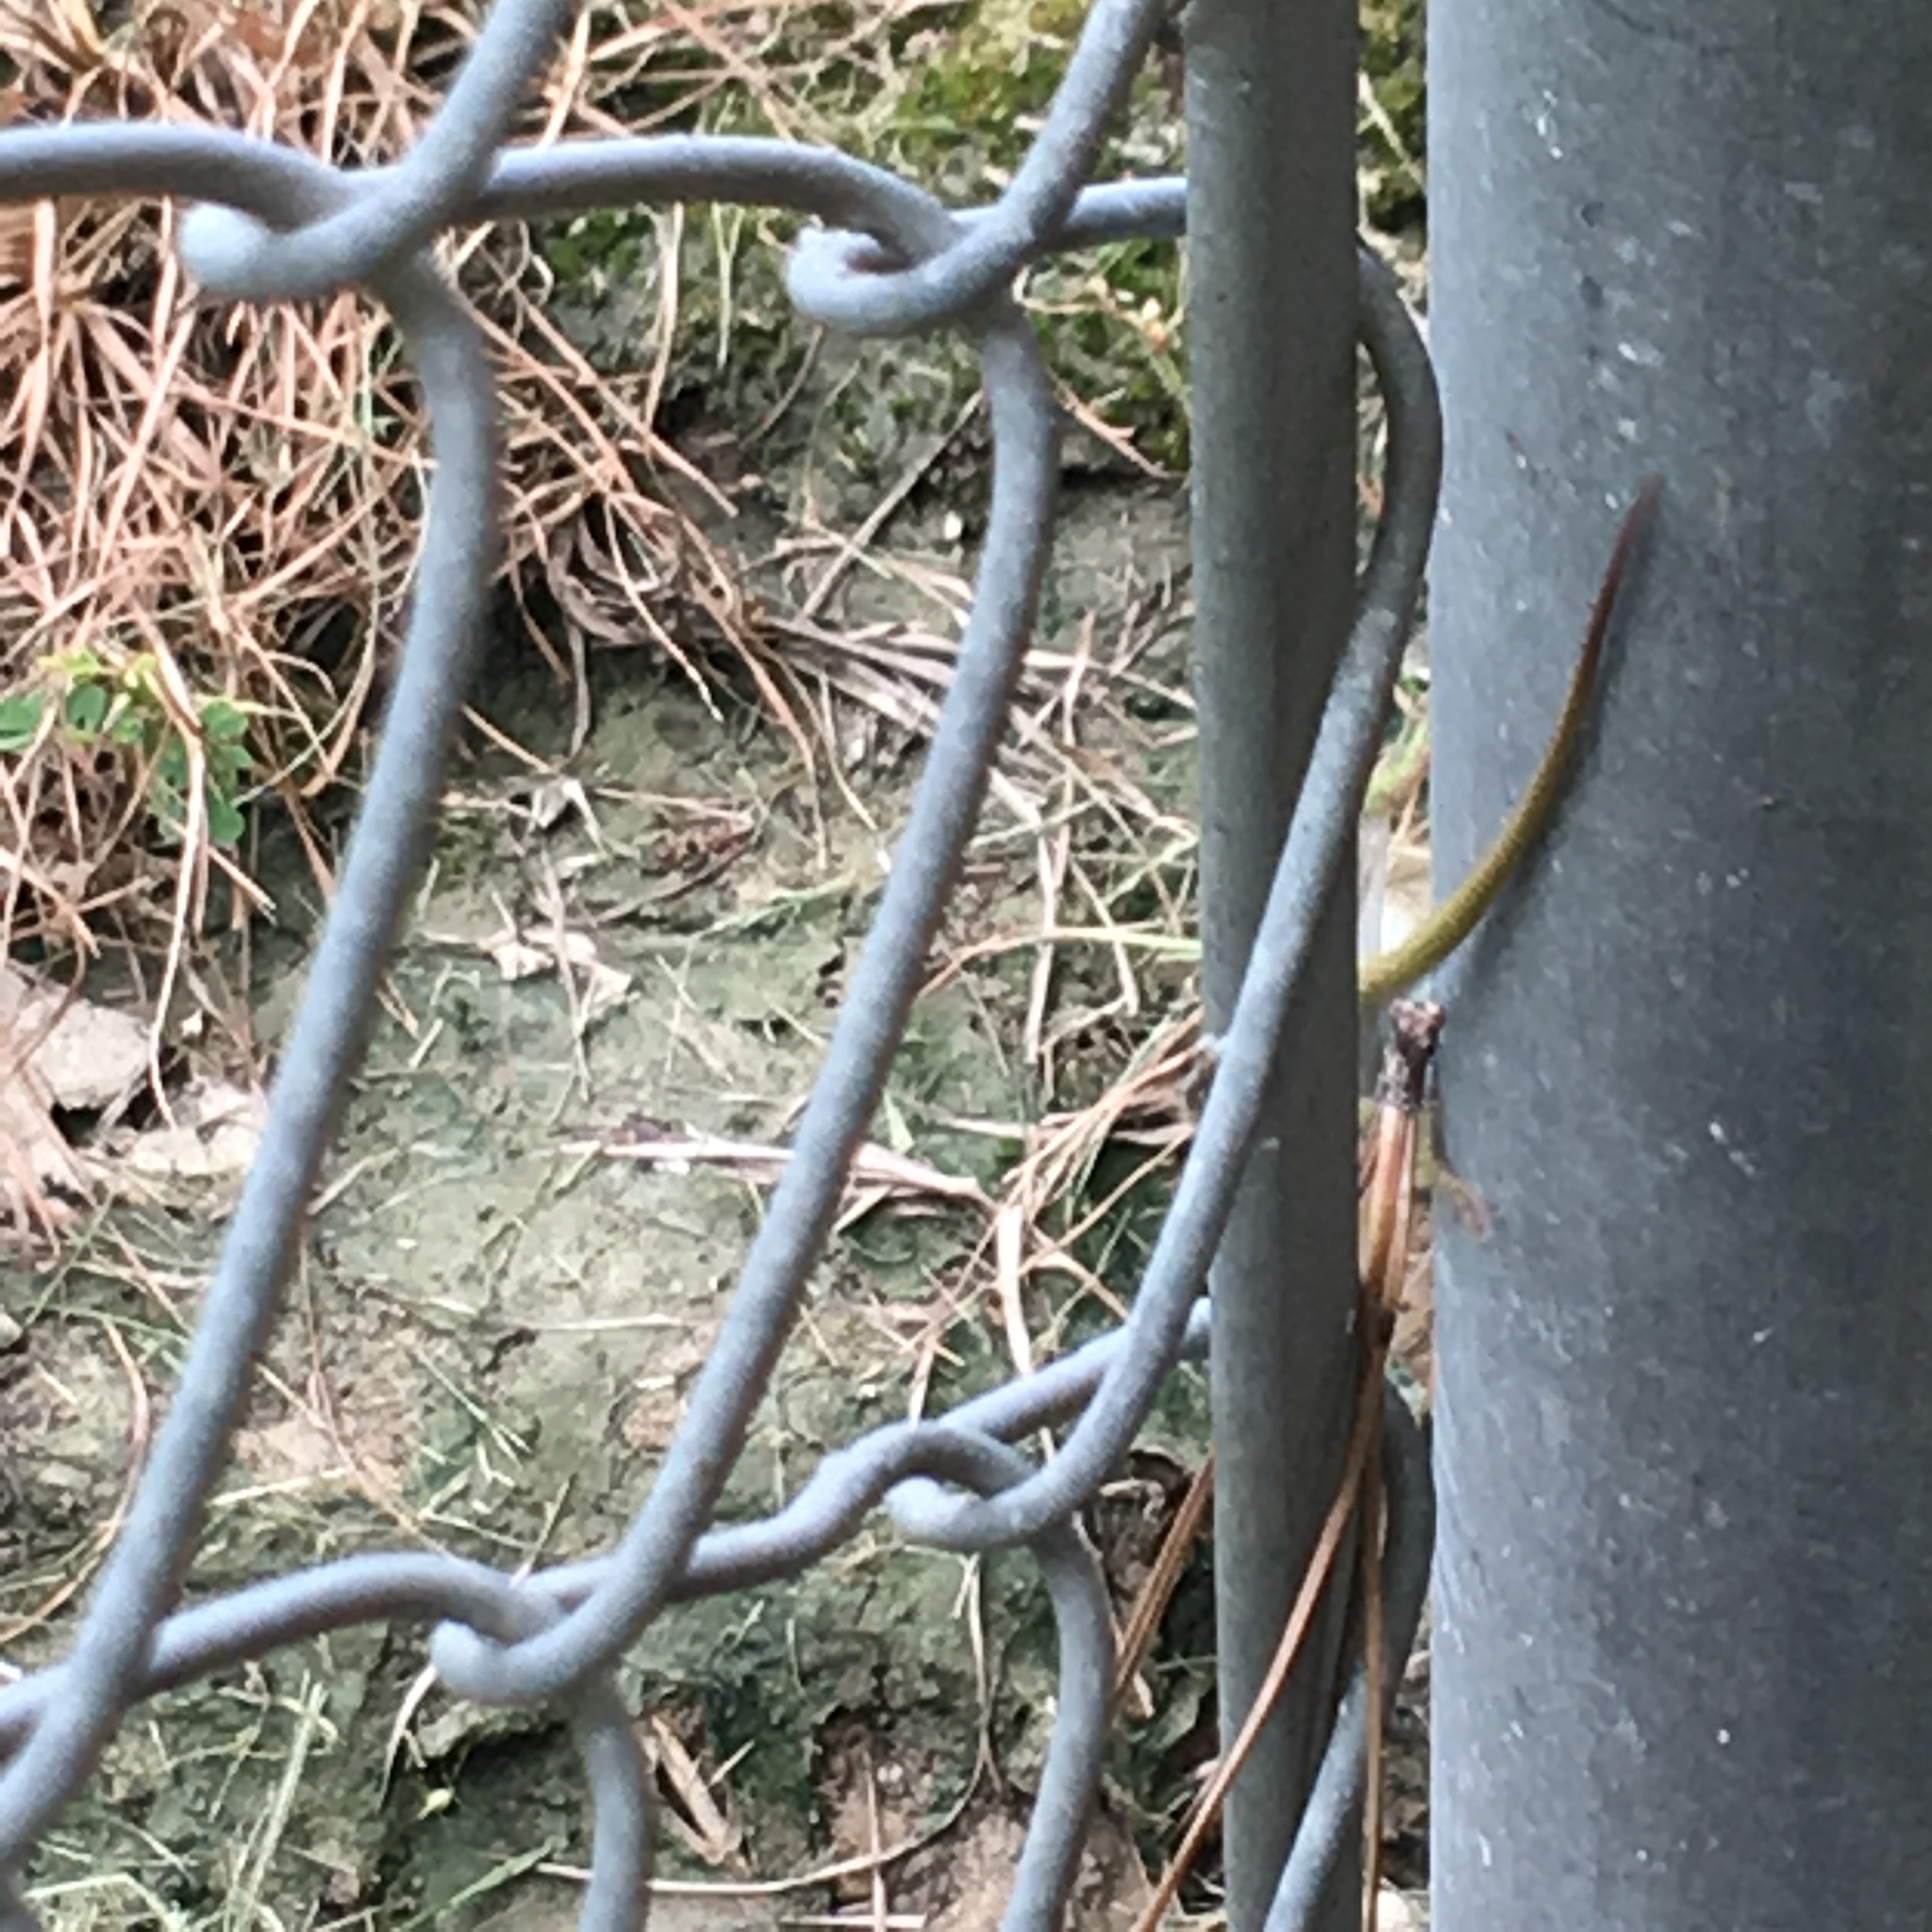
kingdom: Animalia
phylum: Chordata
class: Squamata
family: Dactyloidae
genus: Anolis
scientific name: Anolis carolinensis
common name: Green anole
